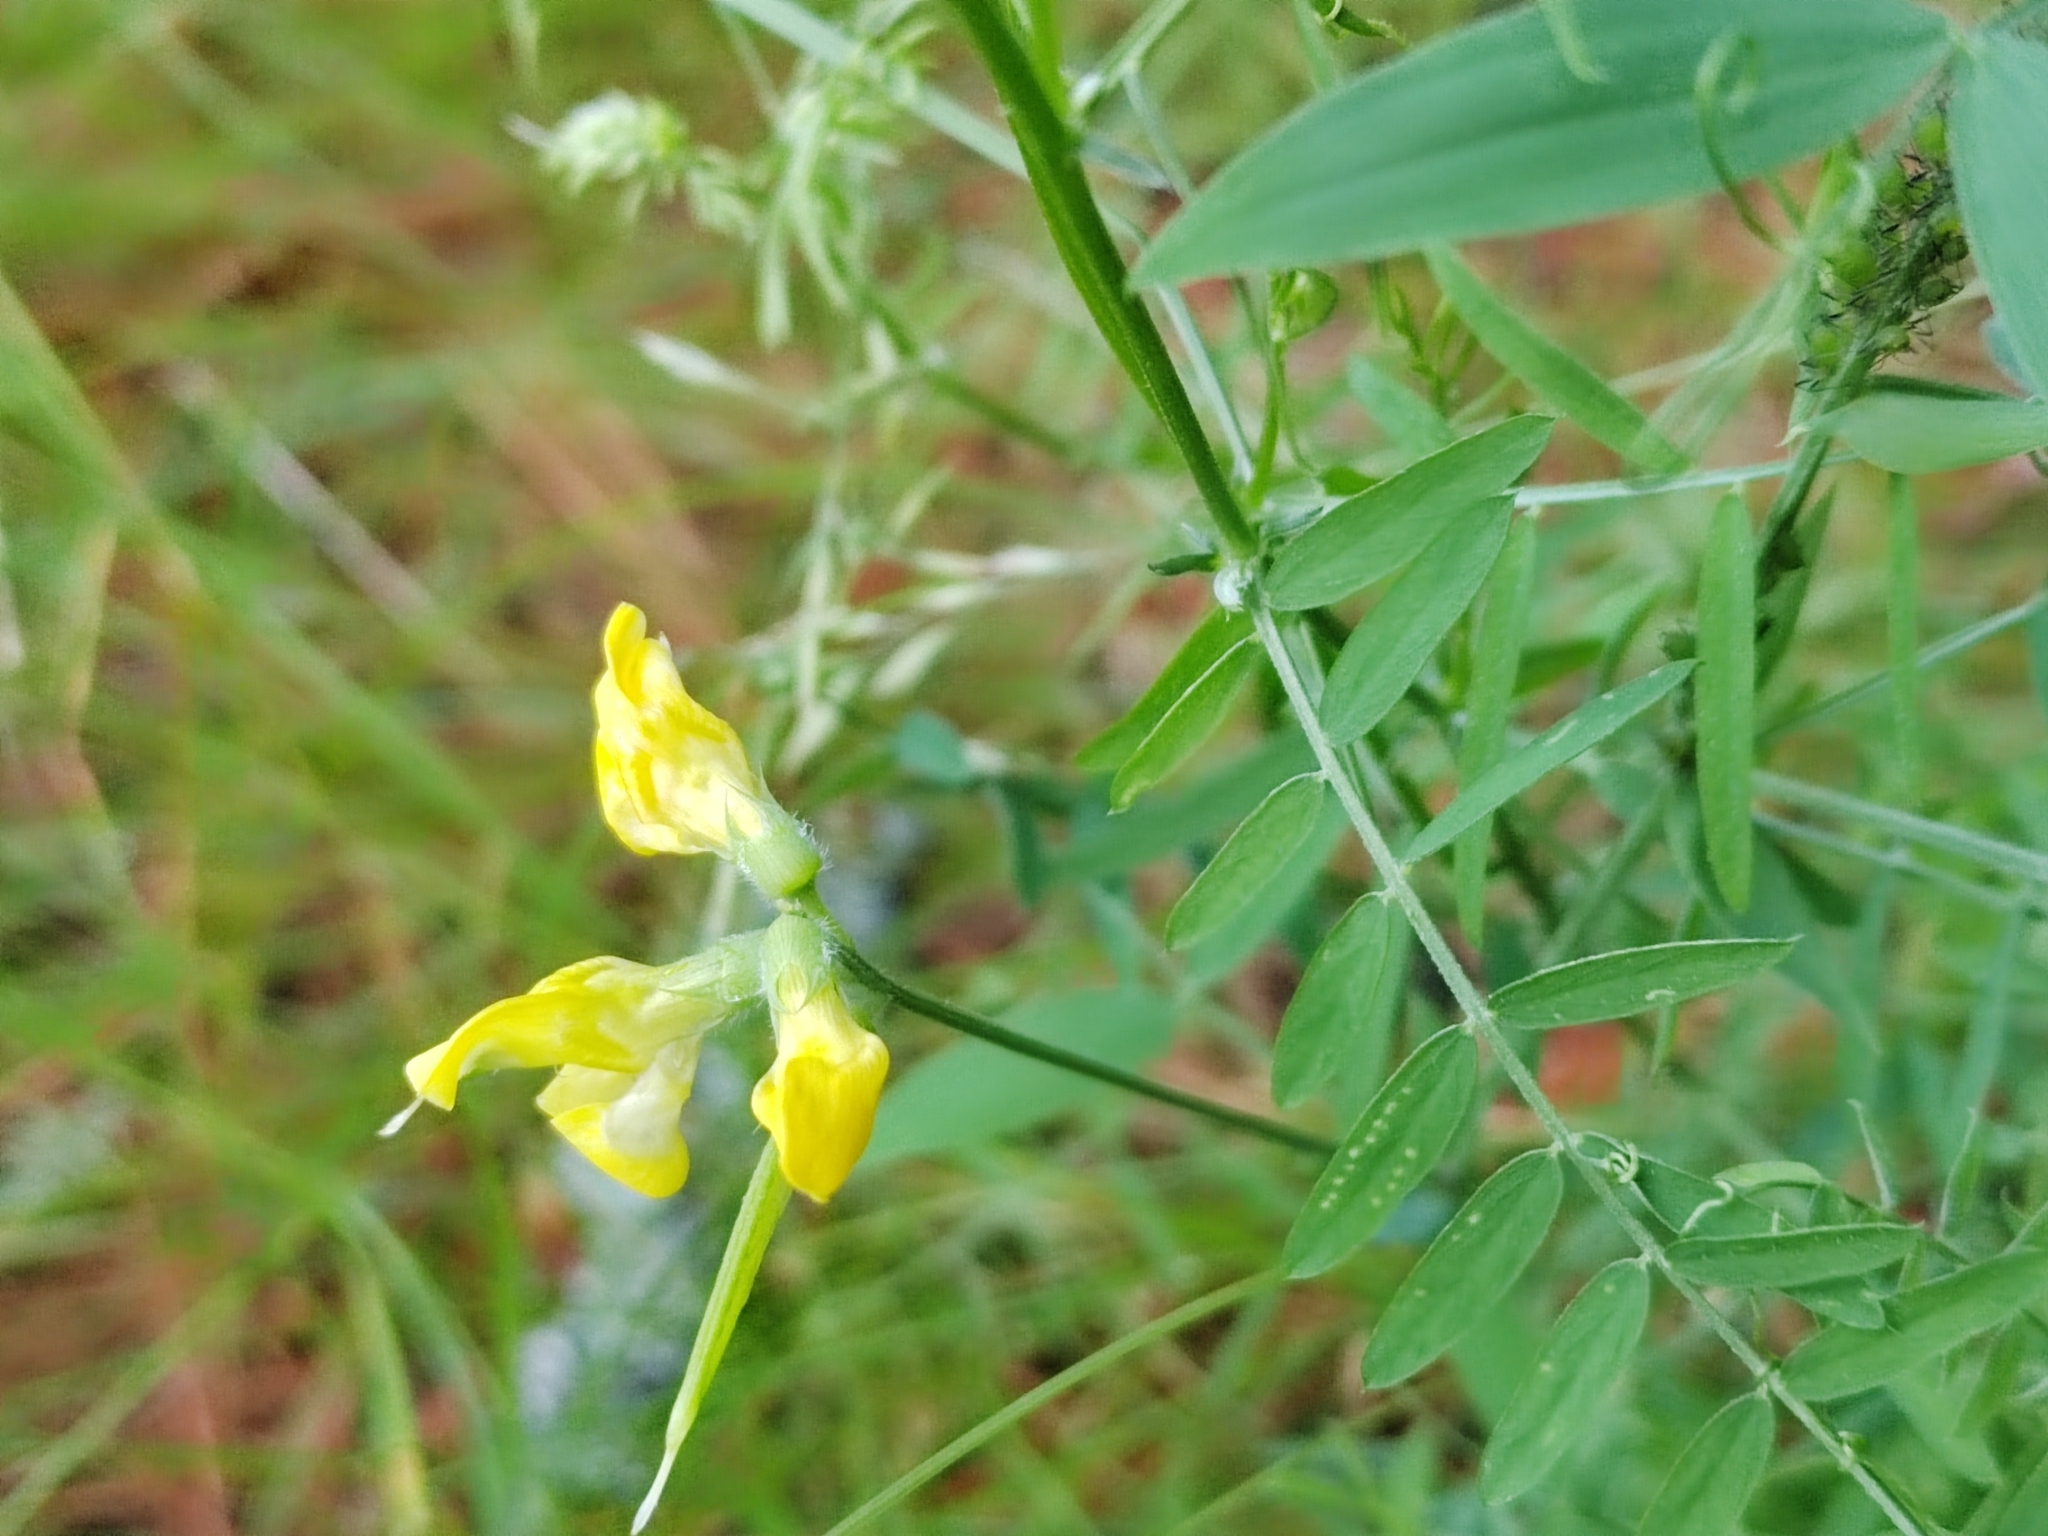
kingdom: Plantae
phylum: Tracheophyta
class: Magnoliopsida
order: Fabales
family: Fabaceae
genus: Lathyrus
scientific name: Lathyrus pratensis
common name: Meadow vetchling
